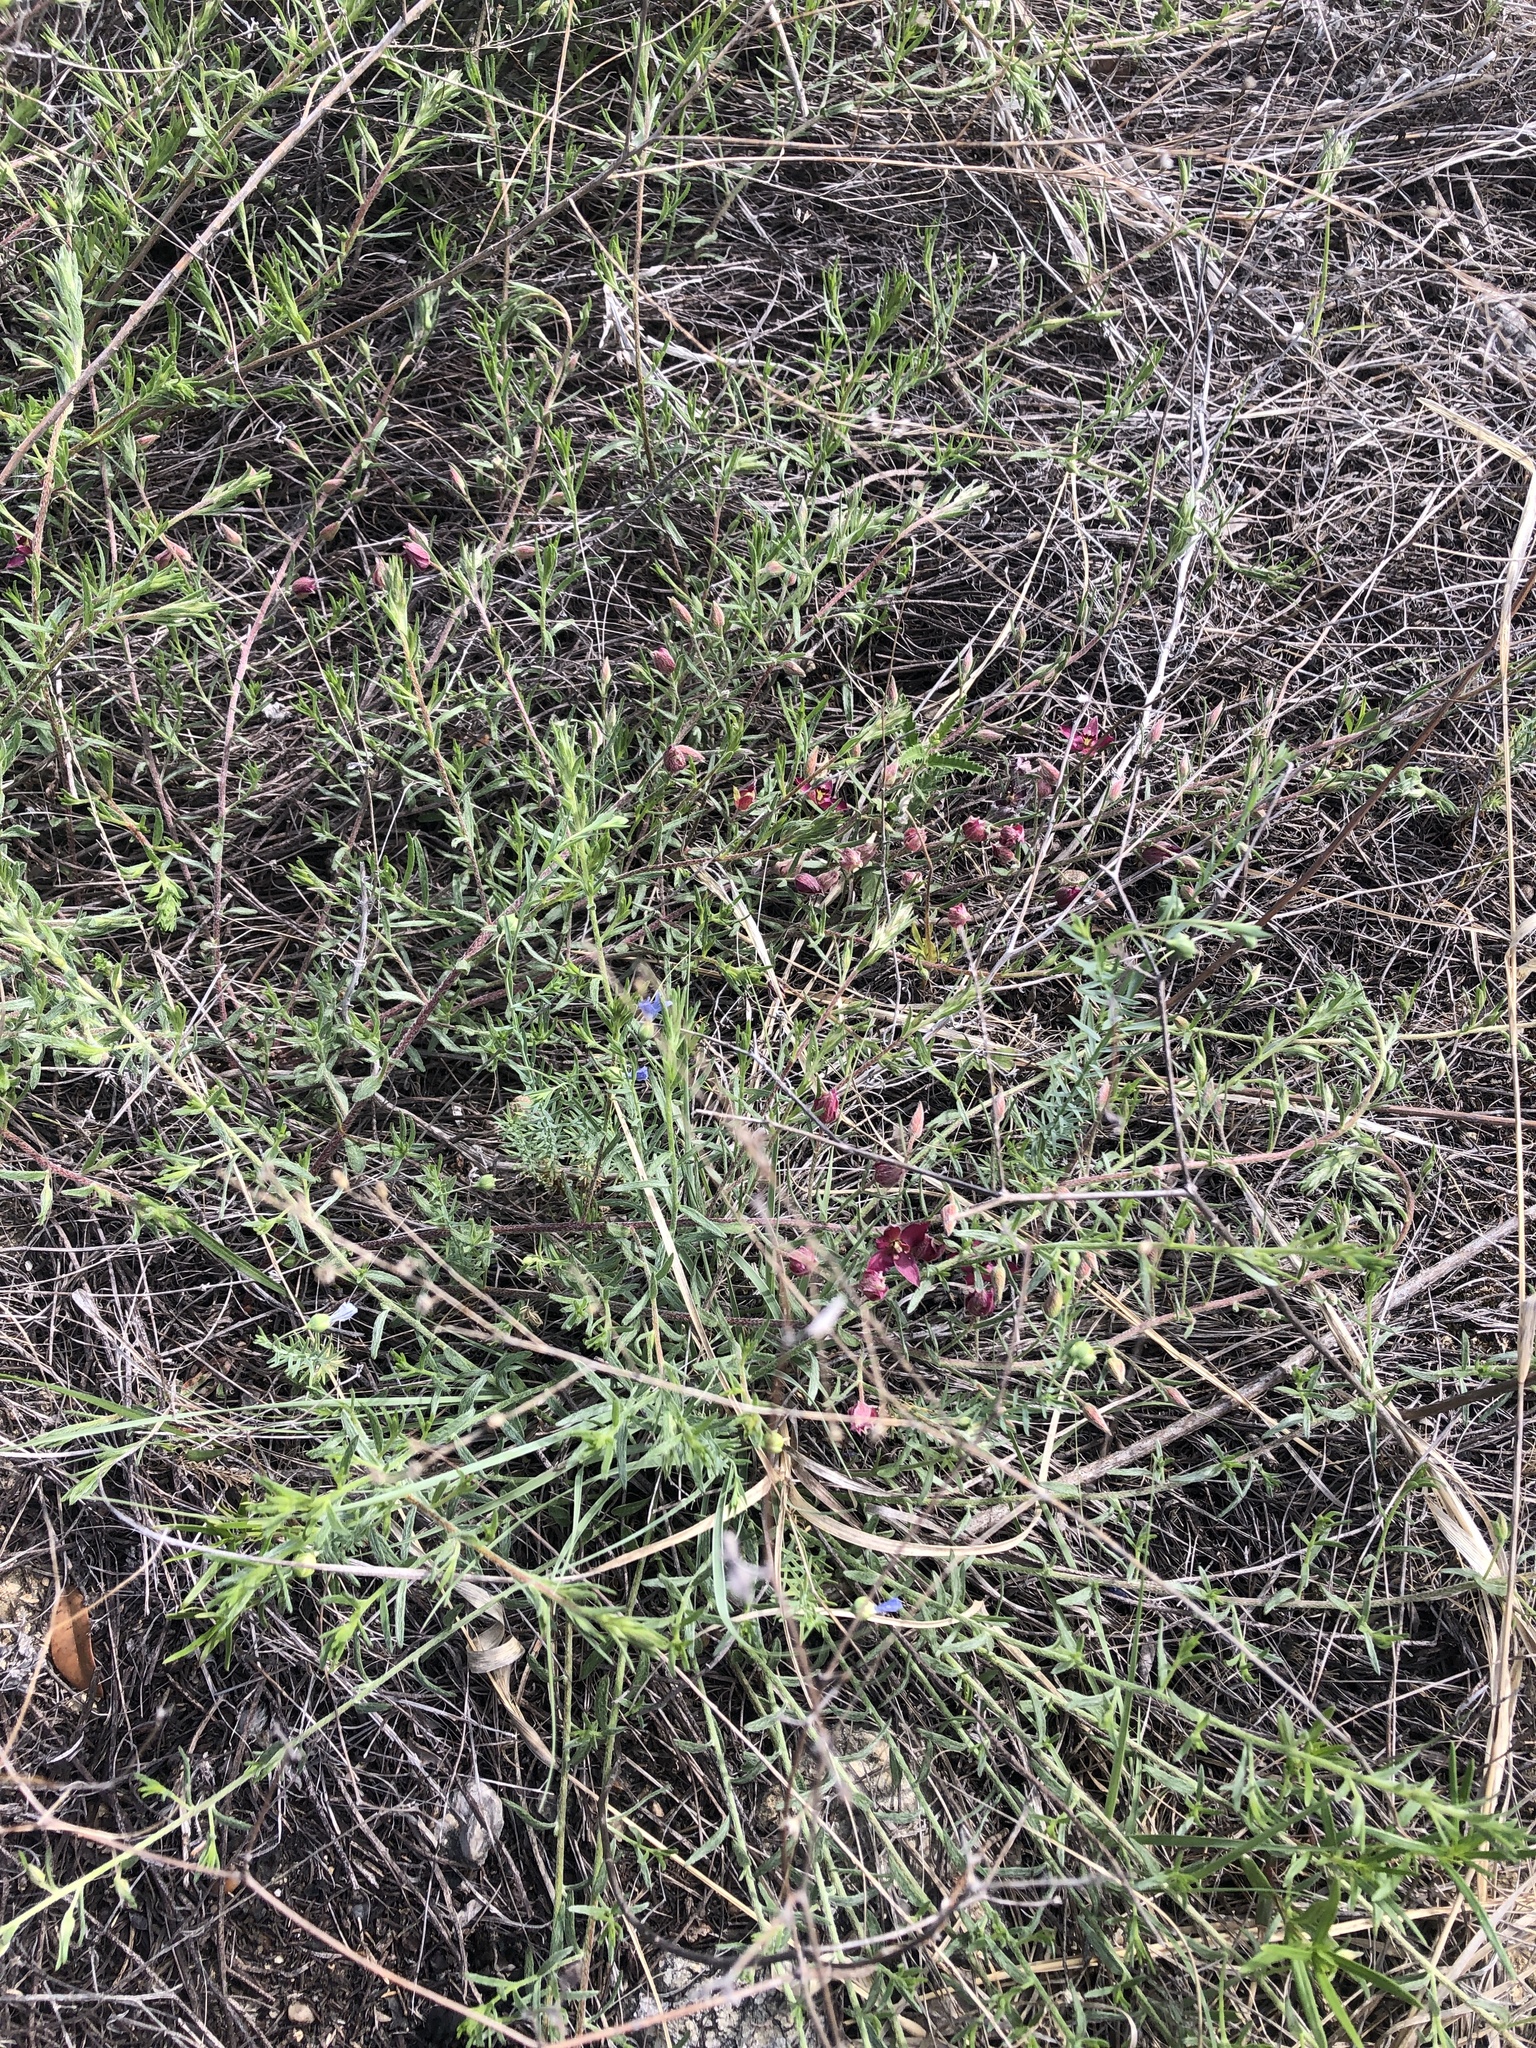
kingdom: Plantae
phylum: Tracheophyta
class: Magnoliopsida
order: Zygophyllales
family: Krameriaceae
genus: Krameria
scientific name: Krameria lanceolata
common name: Ratany
